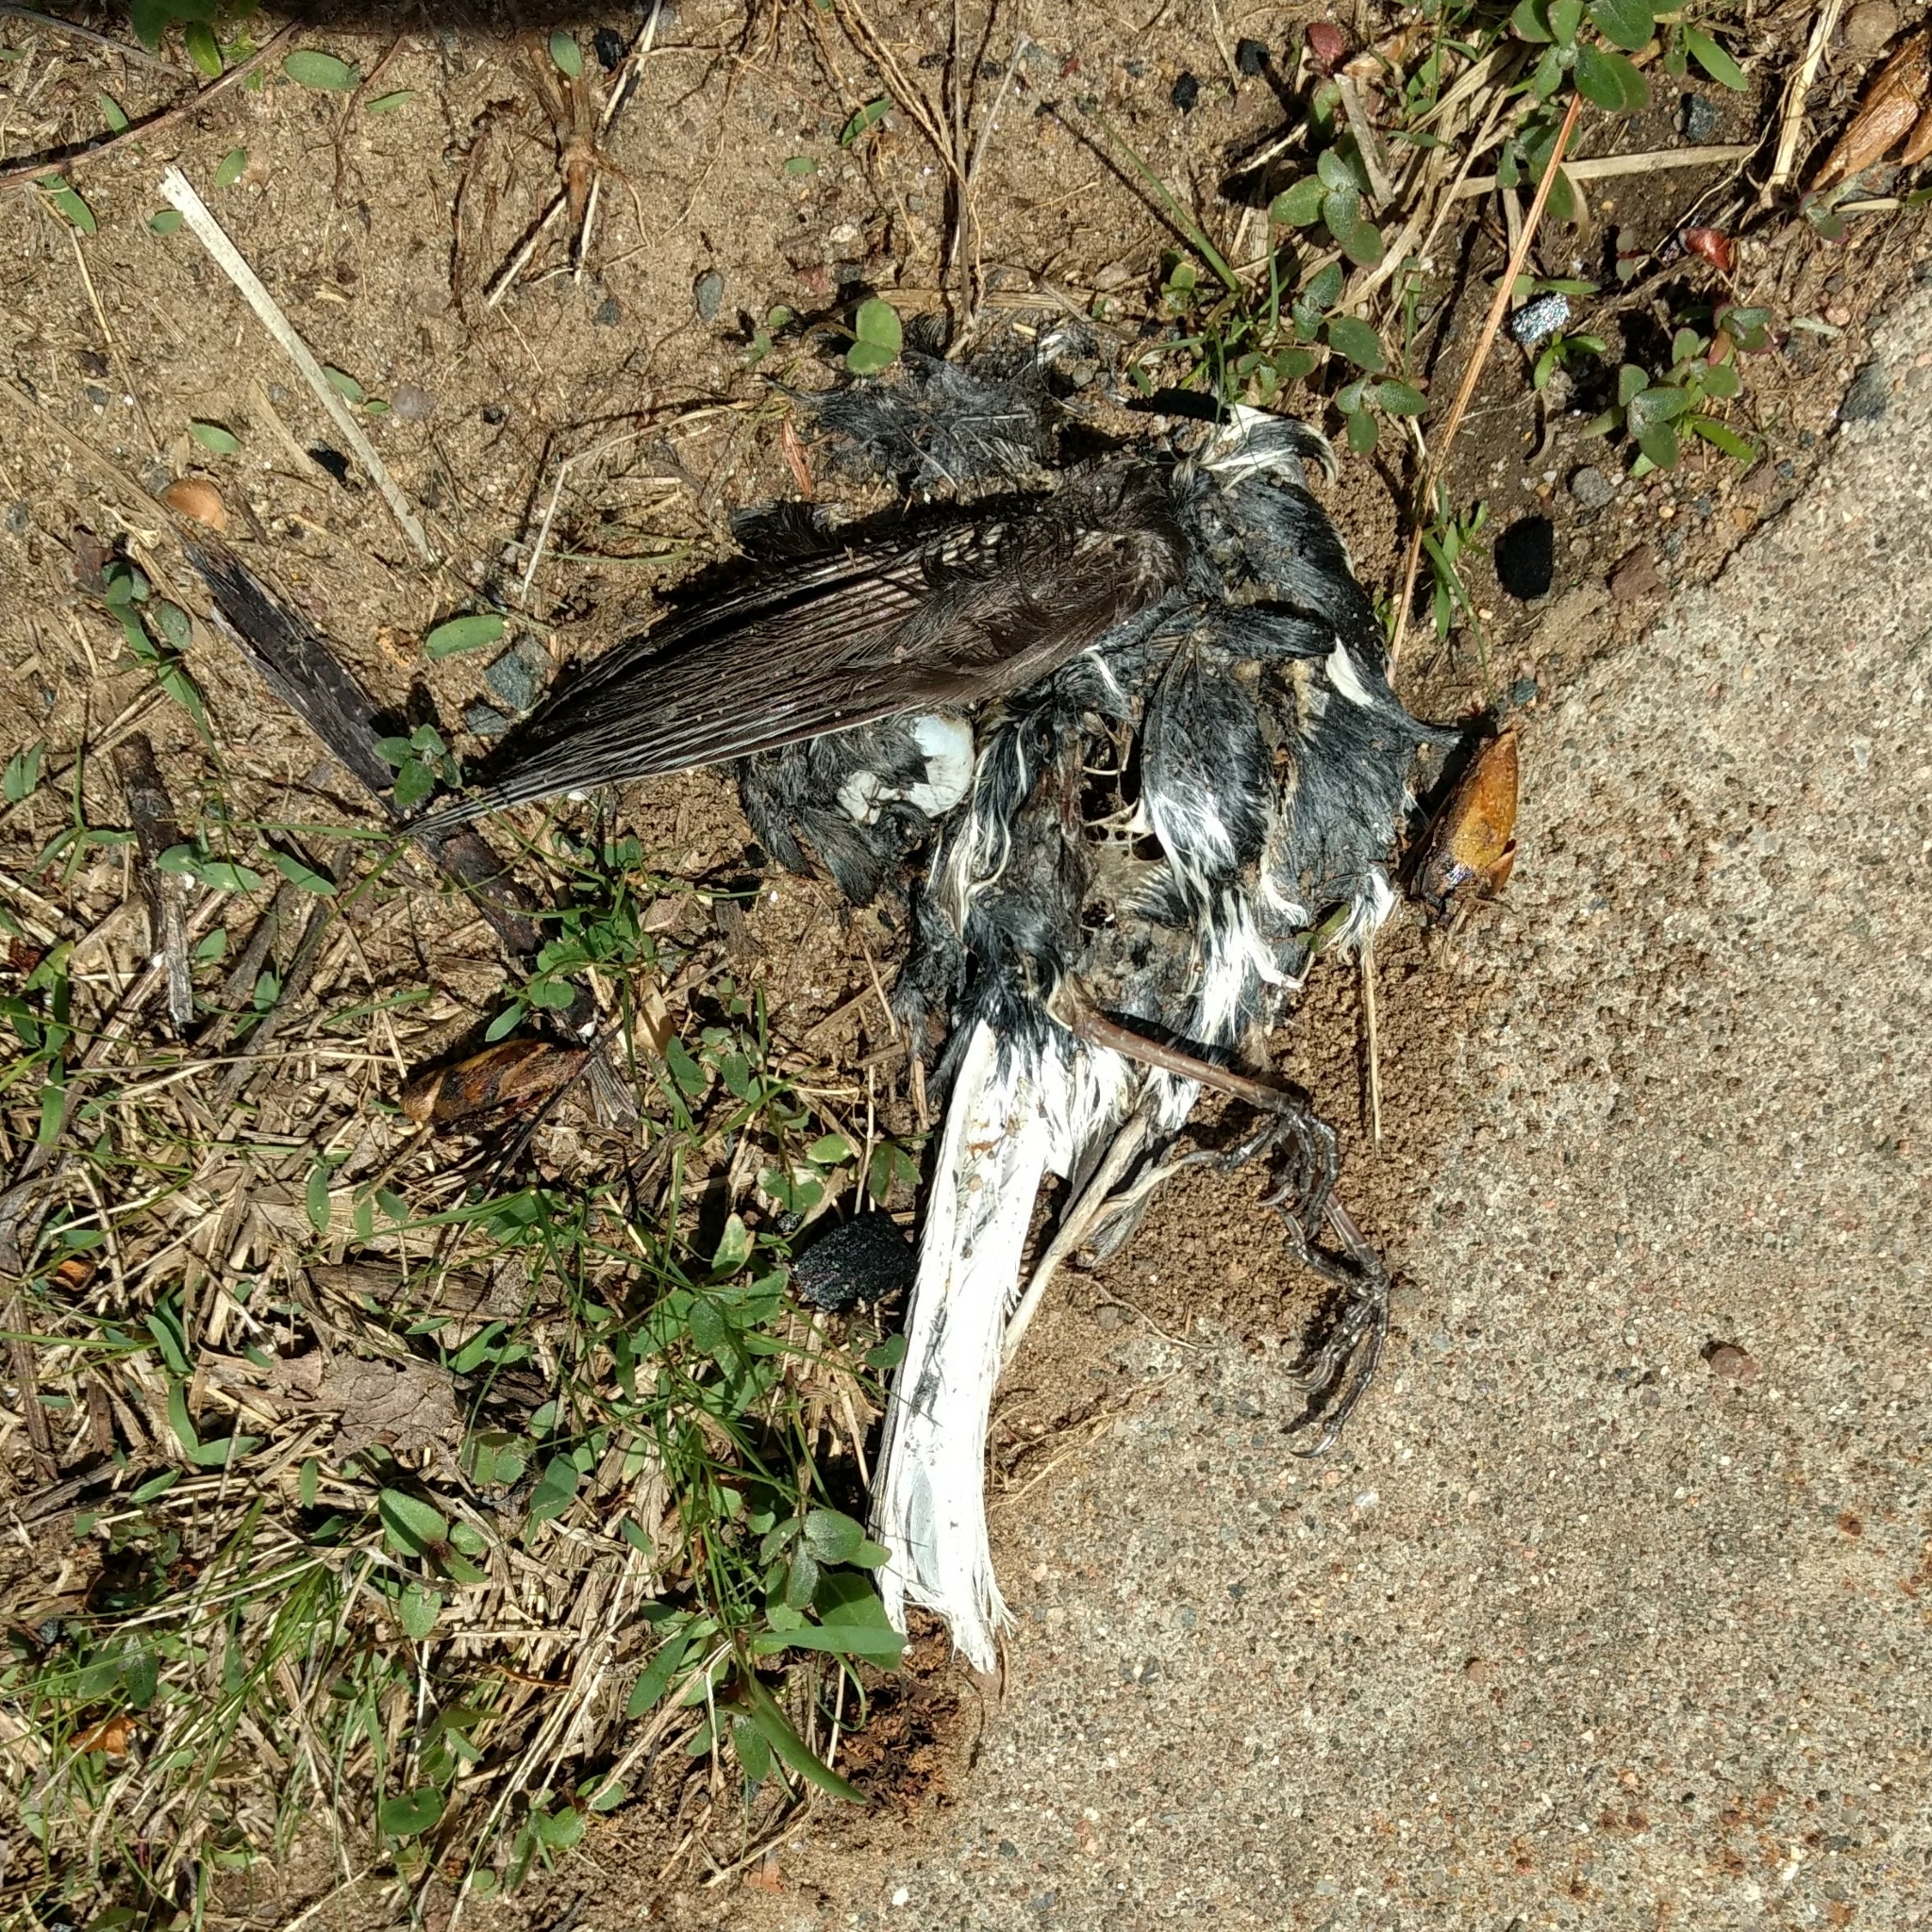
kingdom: Animalia
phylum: Chordata
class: Aves
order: Passeriformes
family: Passerellidae
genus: Junco
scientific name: Junco hyemalis
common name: Dark-eyed junco
